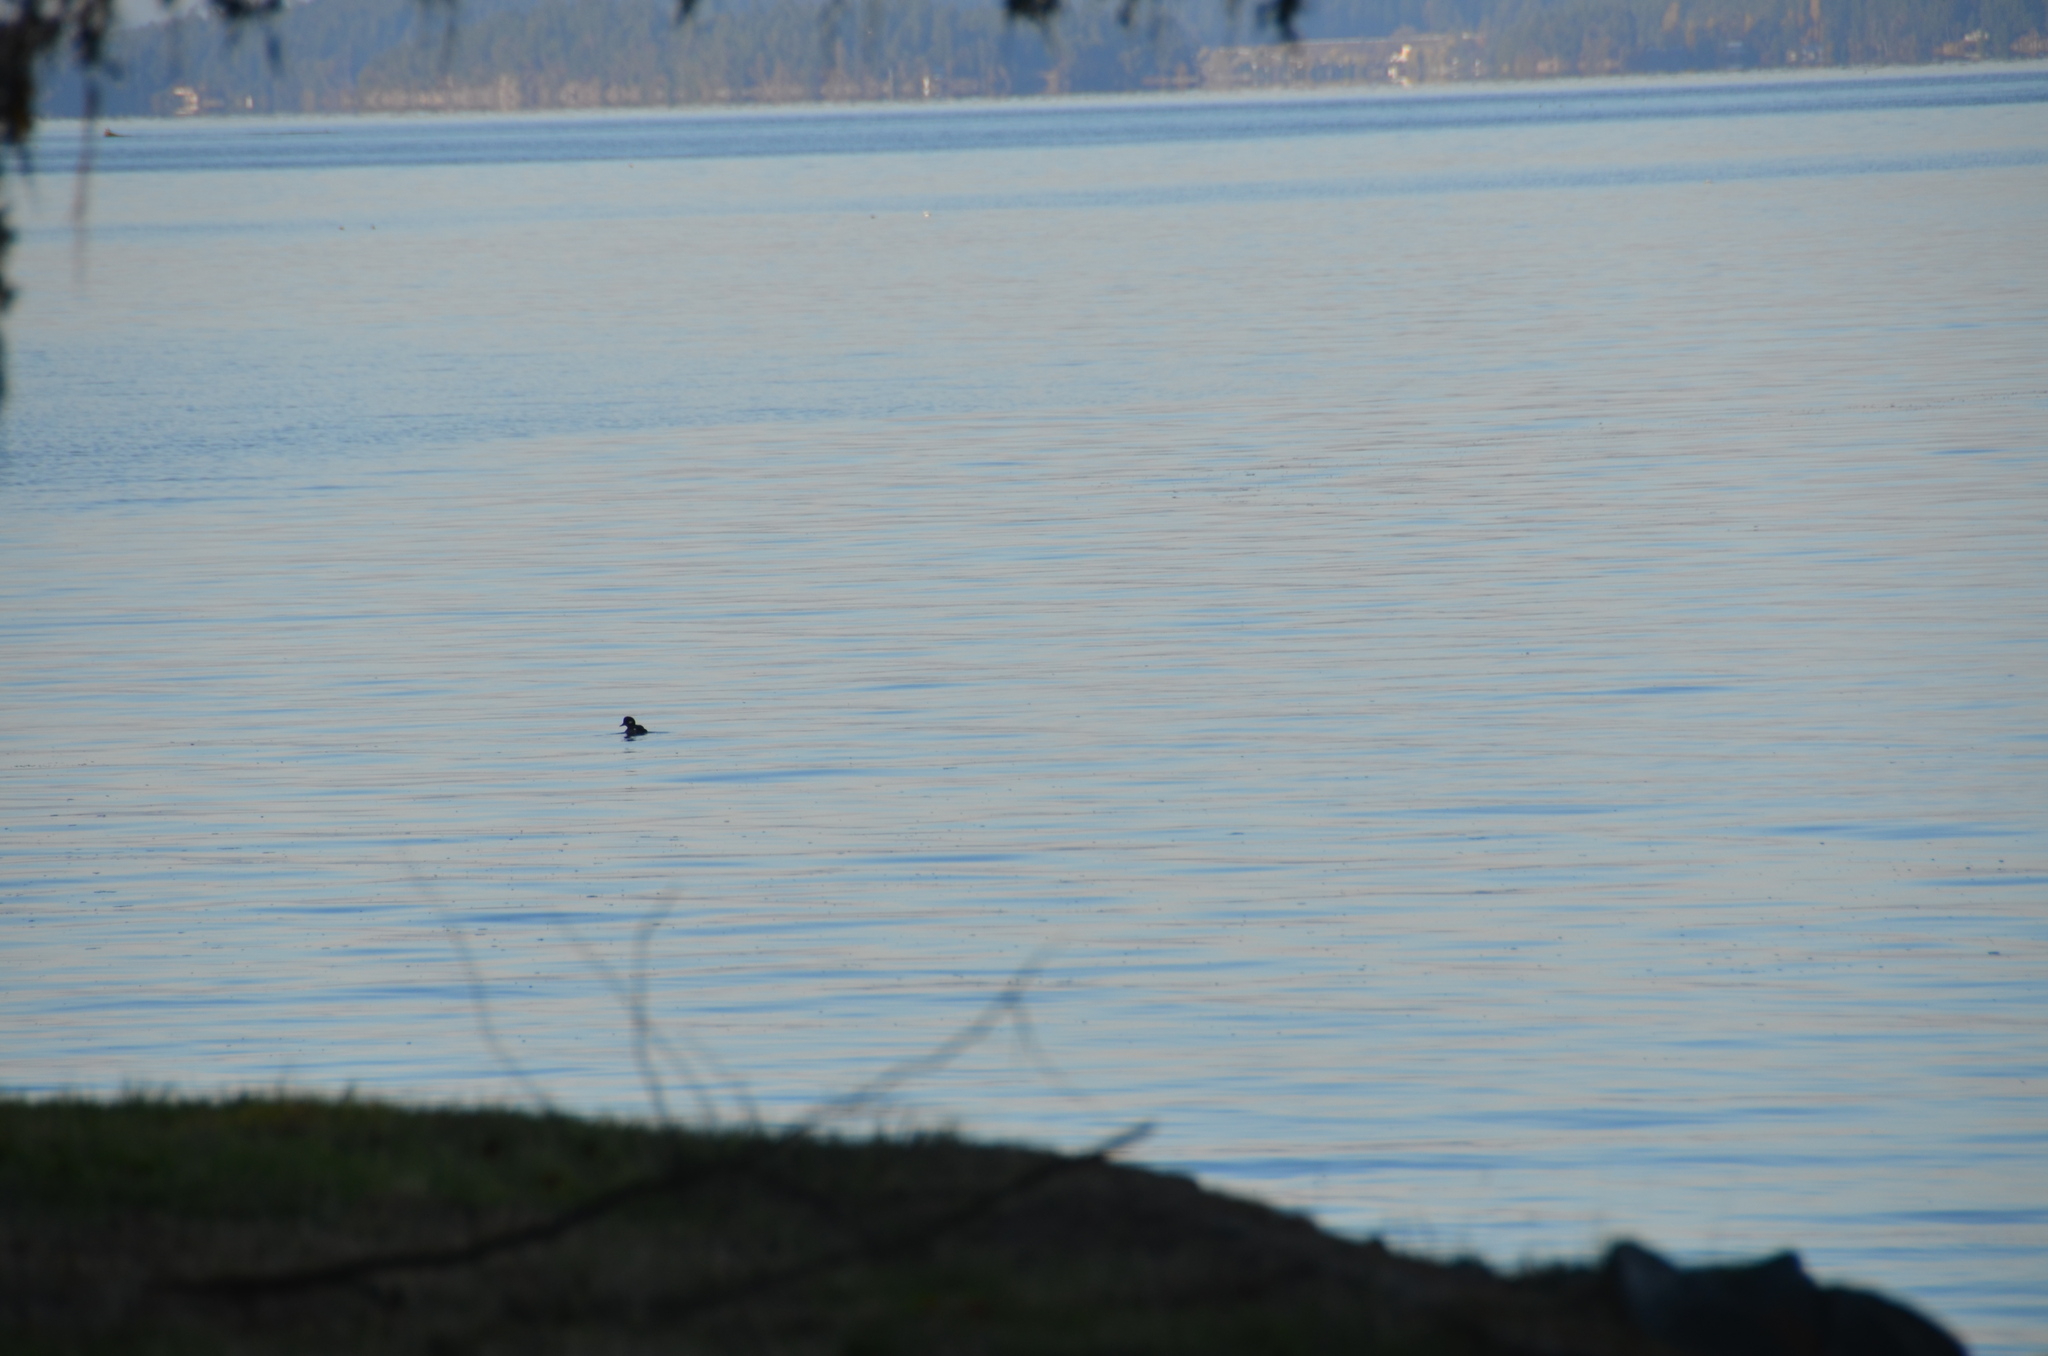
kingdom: Animalia
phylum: Chordata
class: Aves
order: Anseriformes
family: Anatidae
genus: Bucephala
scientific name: Bucephala albeola
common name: Bufflehead
